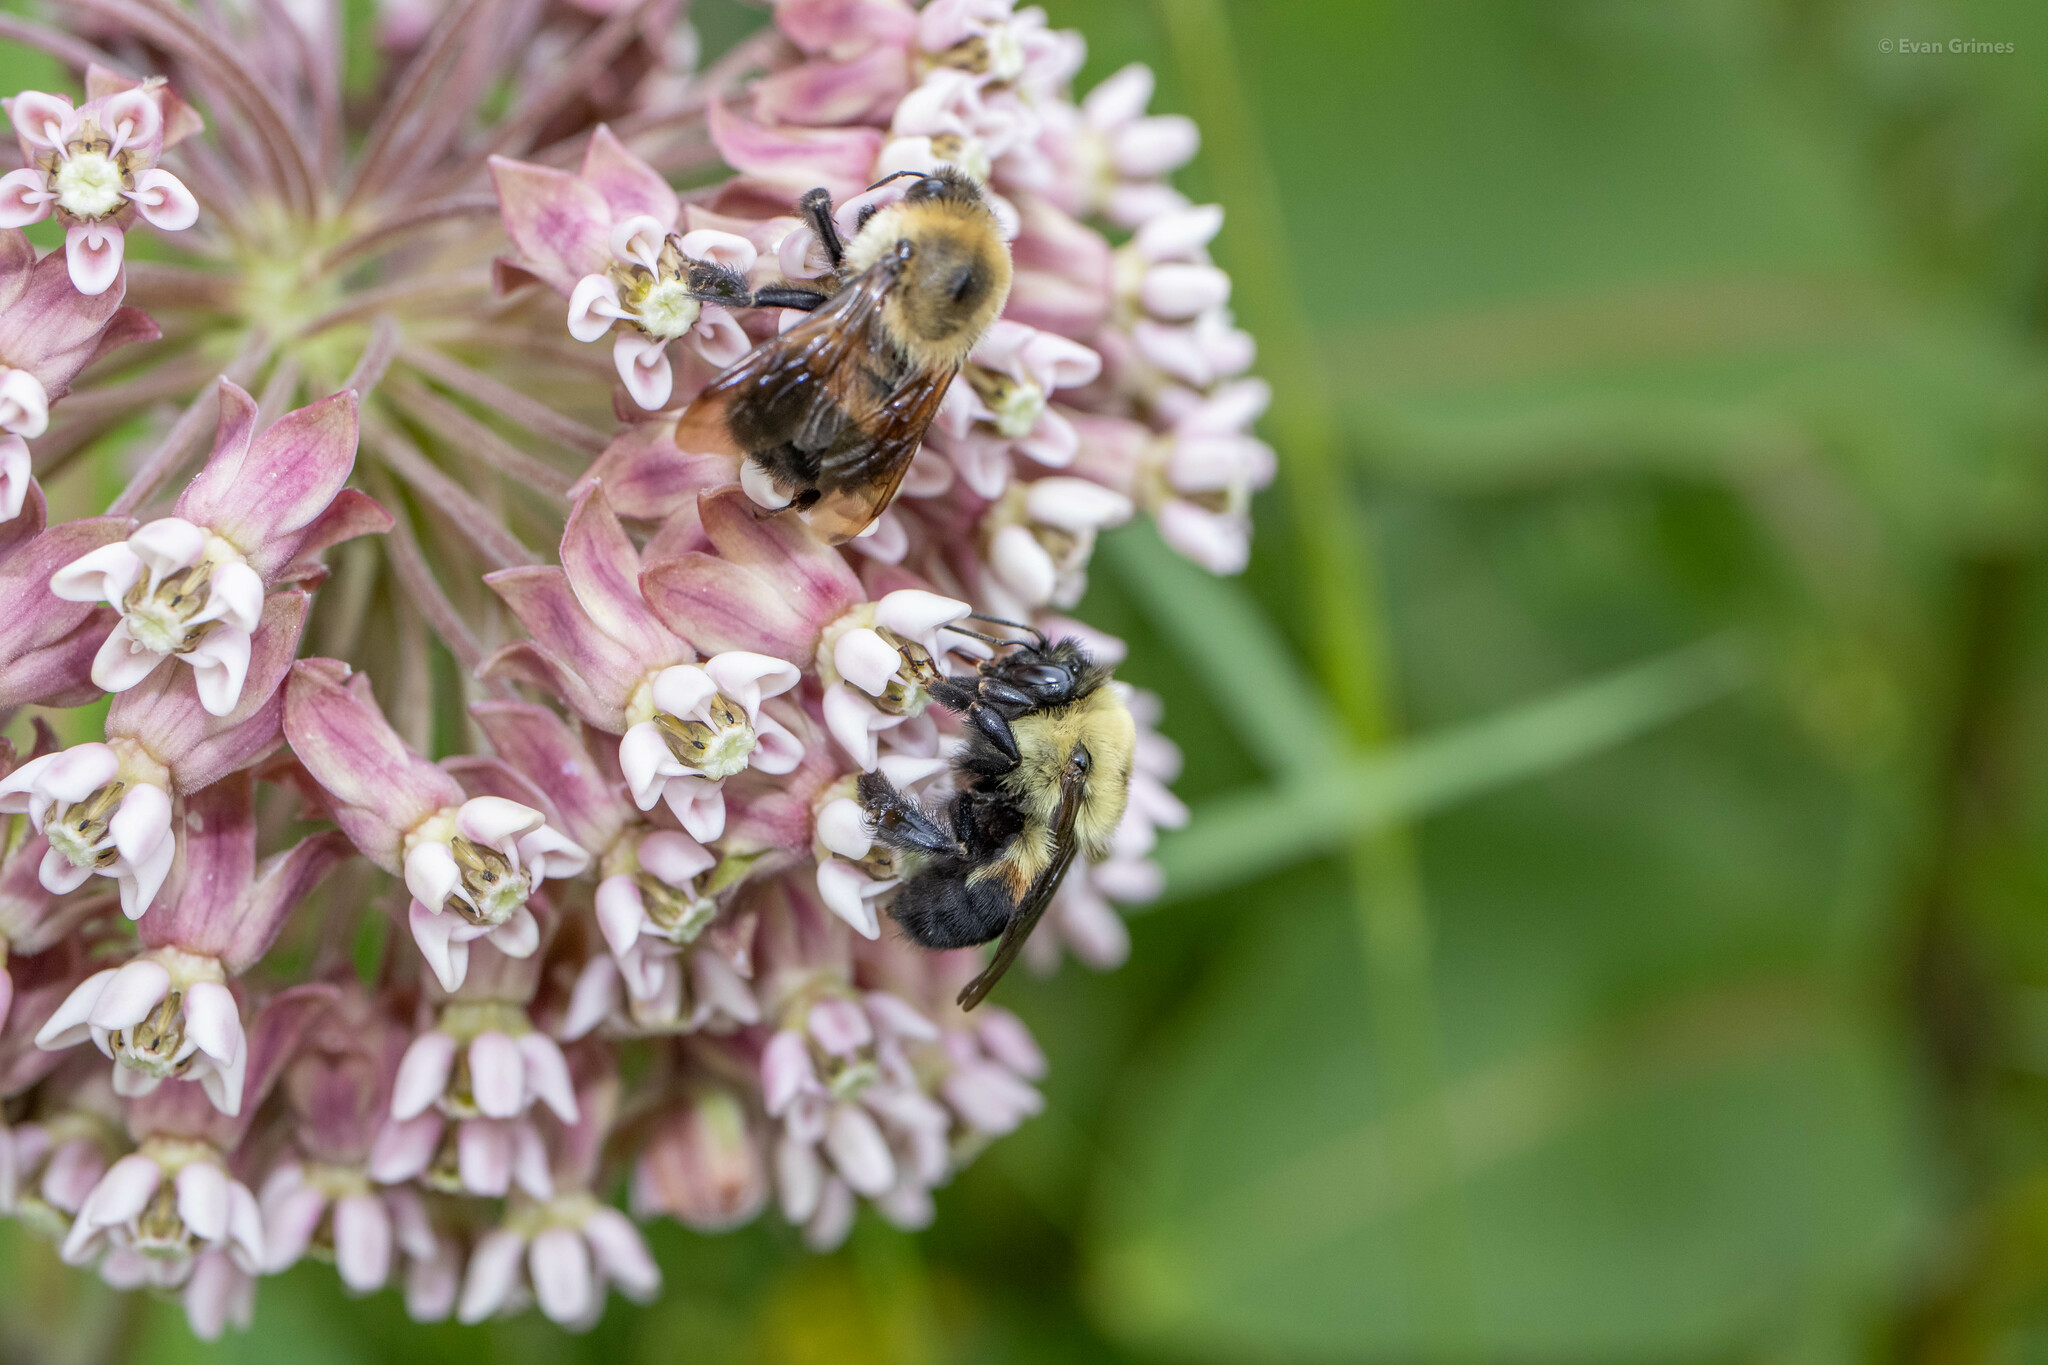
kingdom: Animalia
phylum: Arthropoda
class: Insecta
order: Hymenoptera
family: Apidae
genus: Bombus
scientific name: Bombus griseocollis
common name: Brown-belted bumble bee
